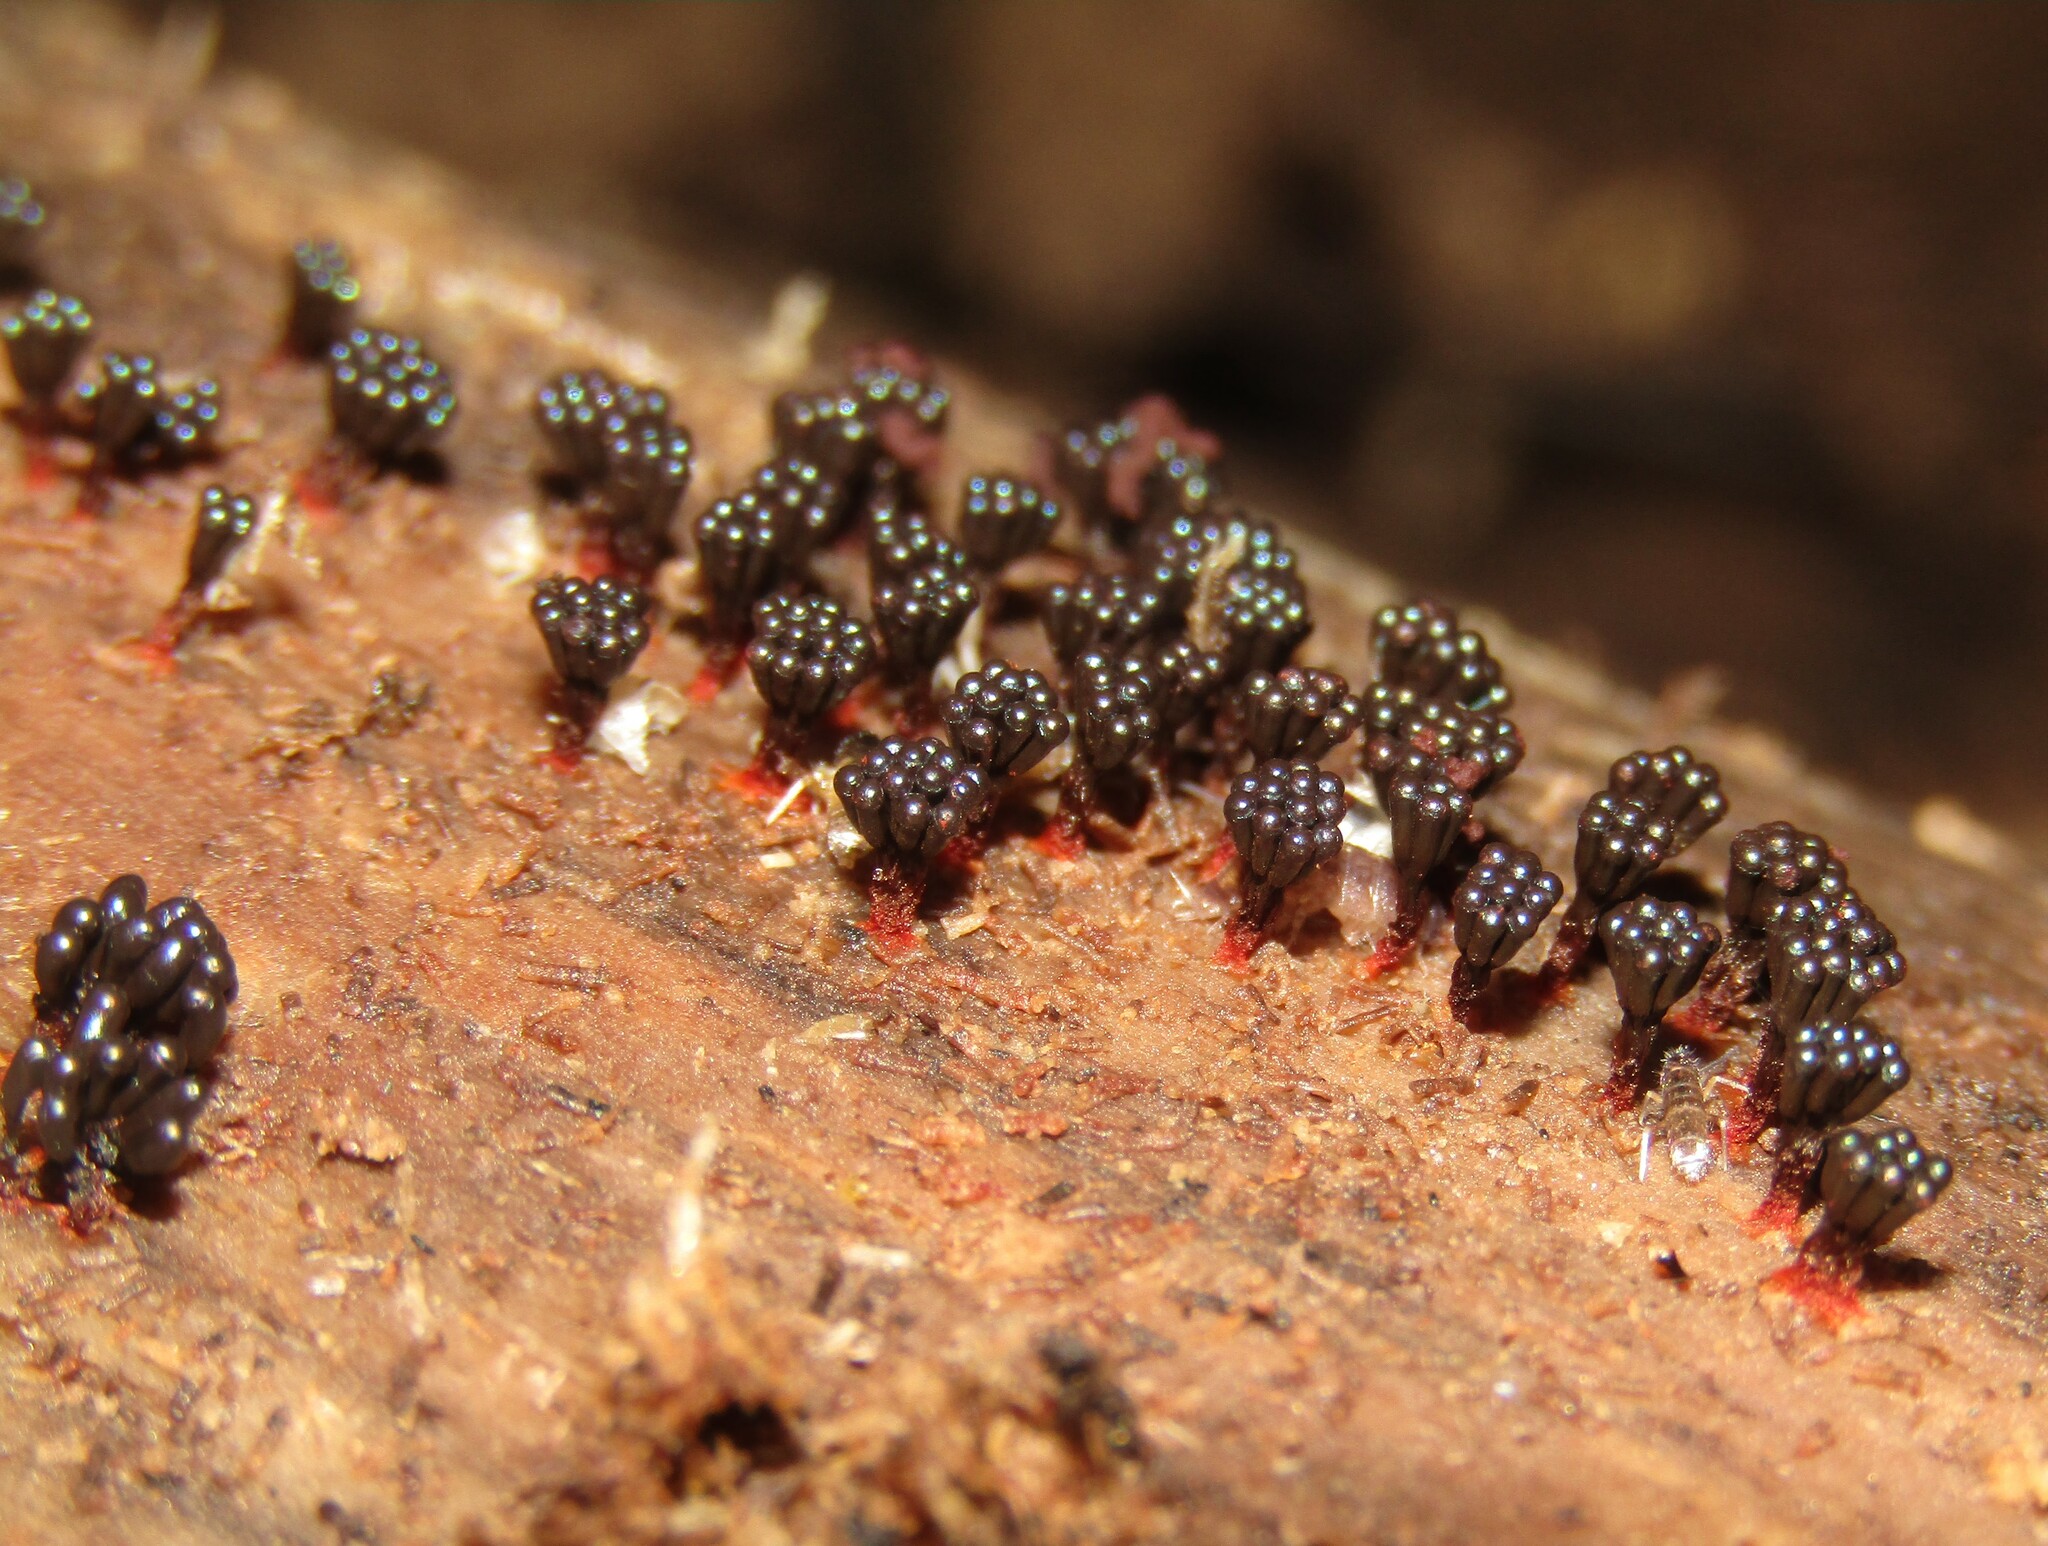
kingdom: Protozoa
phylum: Mycetozoa
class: Myxomycetes
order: Trichiales
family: Trichiaceae
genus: Metatrichia
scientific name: Metatrichia vesparia
